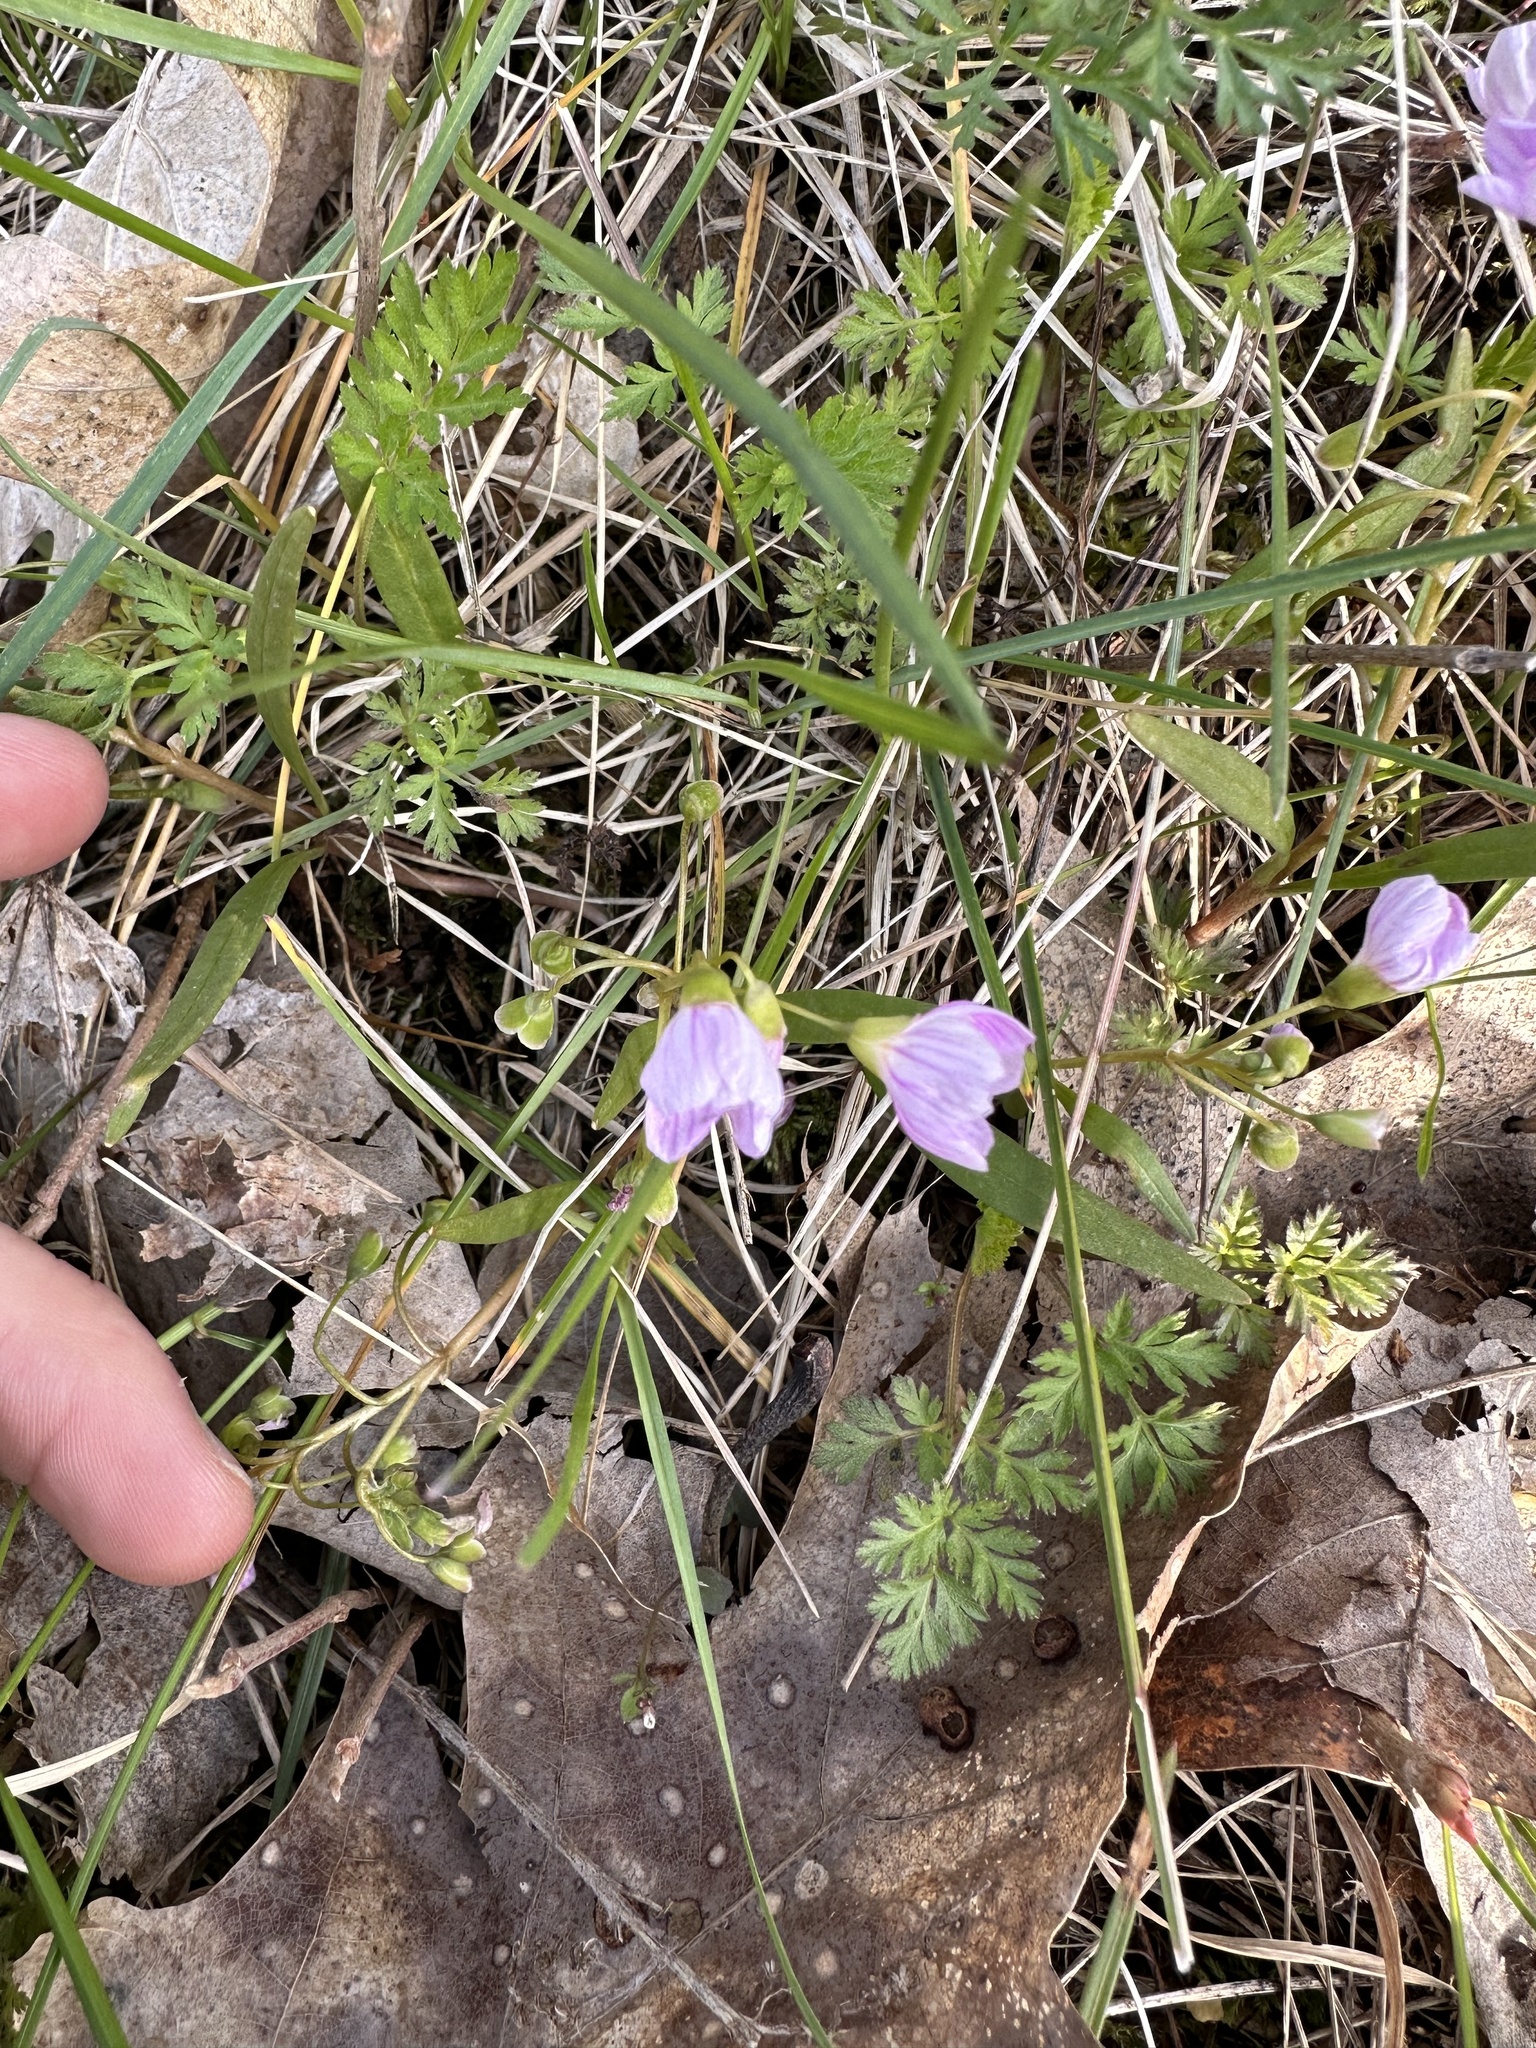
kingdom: Plantae
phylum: Tracheophyta
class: Magnoliopsida
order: Caryophyllales
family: Montiaceae
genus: Claytonia
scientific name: Claytonia virginica
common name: Virginia springbeauty
